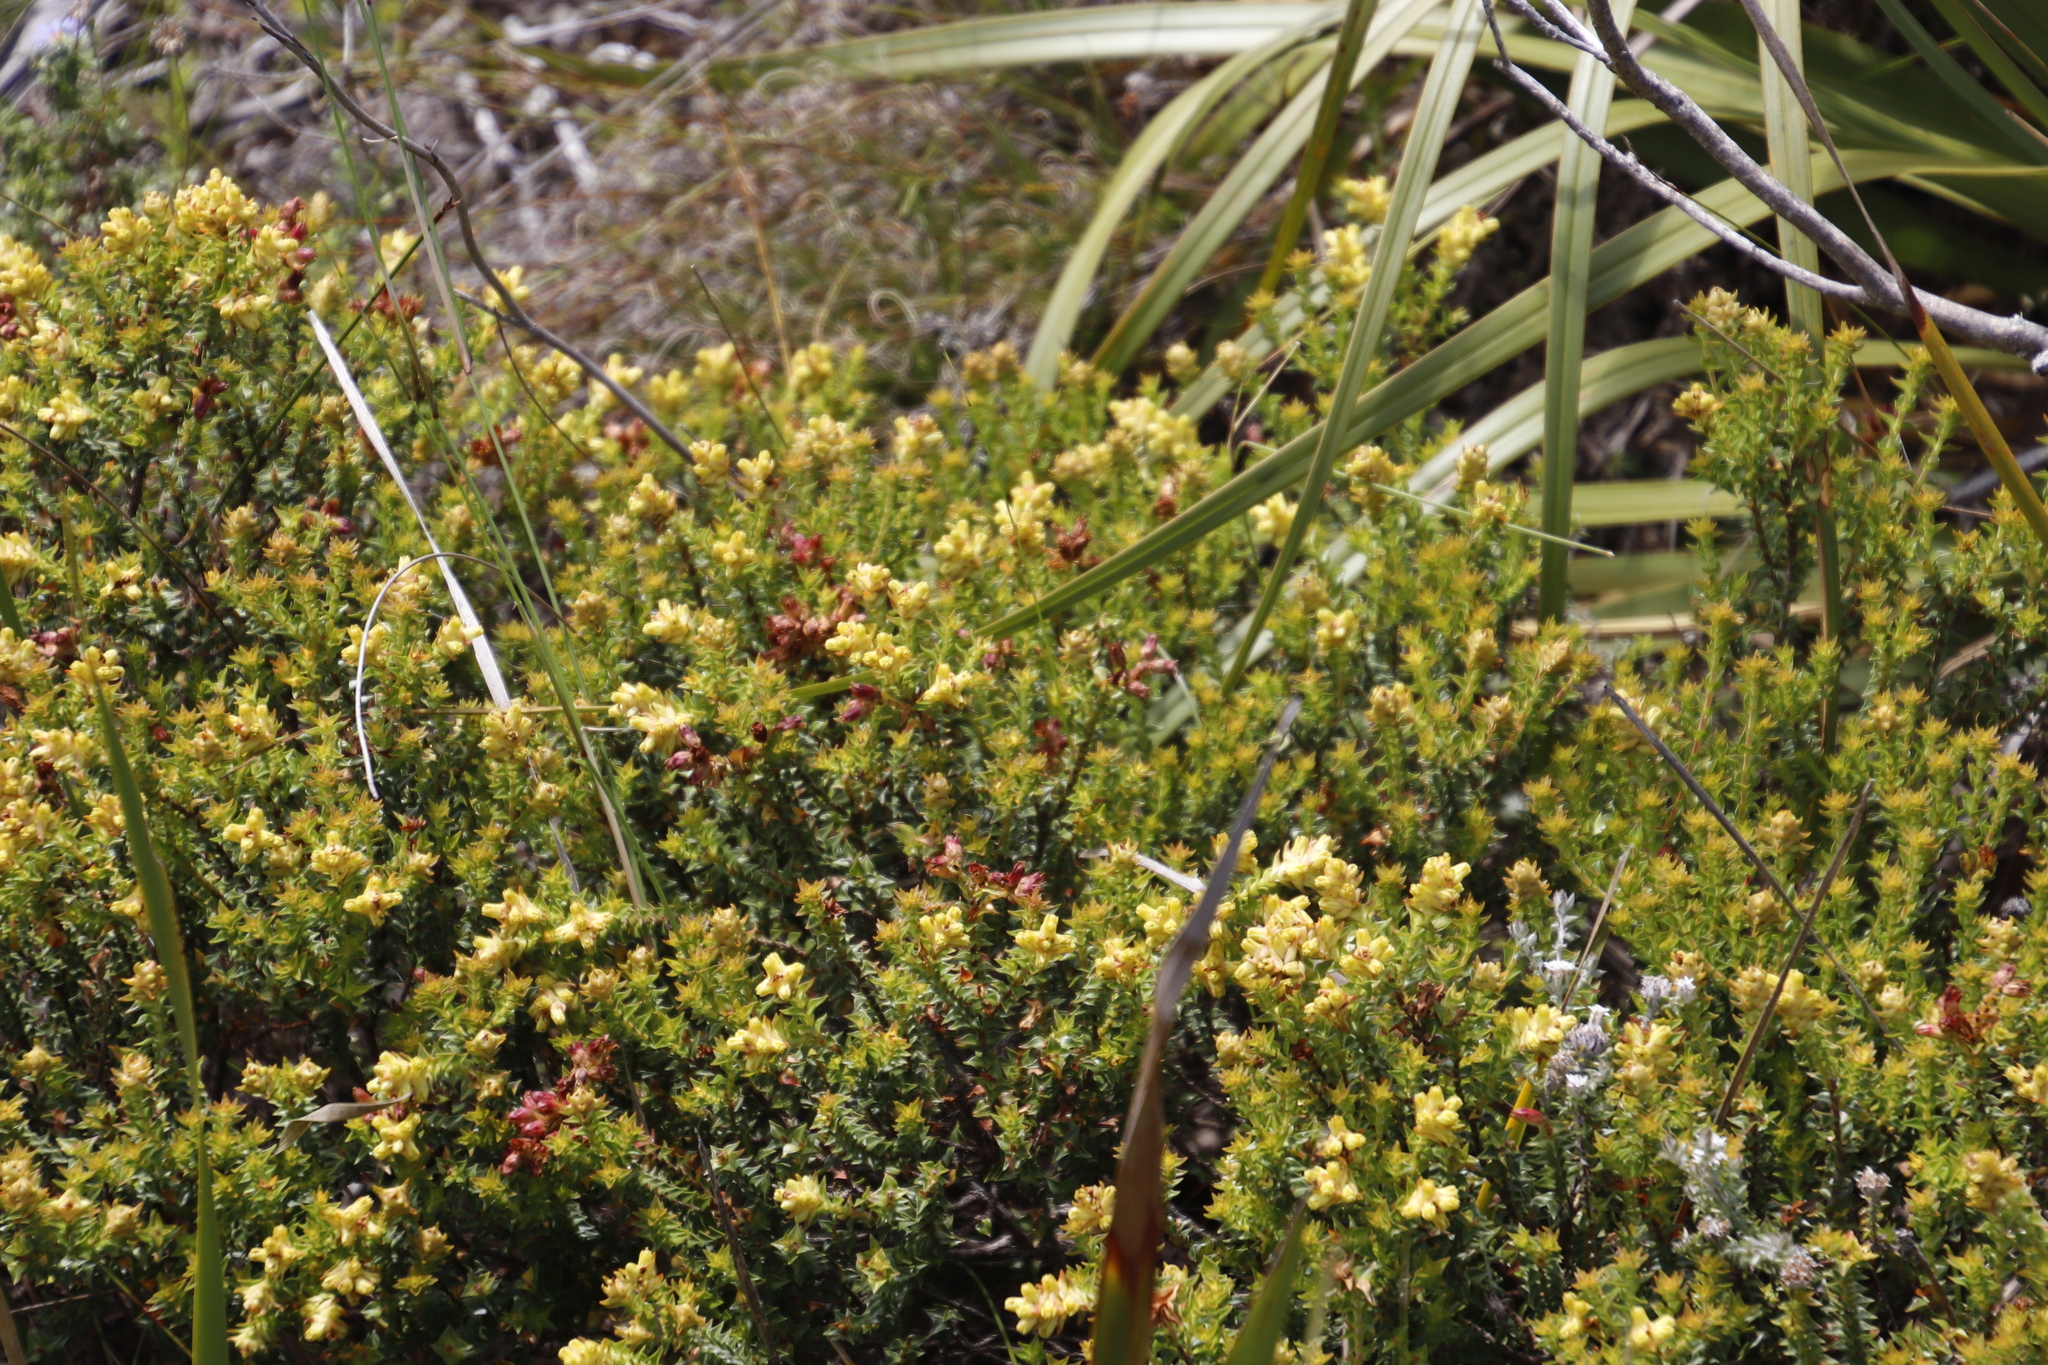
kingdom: Plantae
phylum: Tracheophyta
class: Magnoliopsida
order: Myrtales
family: Penaeaceae
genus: Penaea
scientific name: Penaea mucronata
